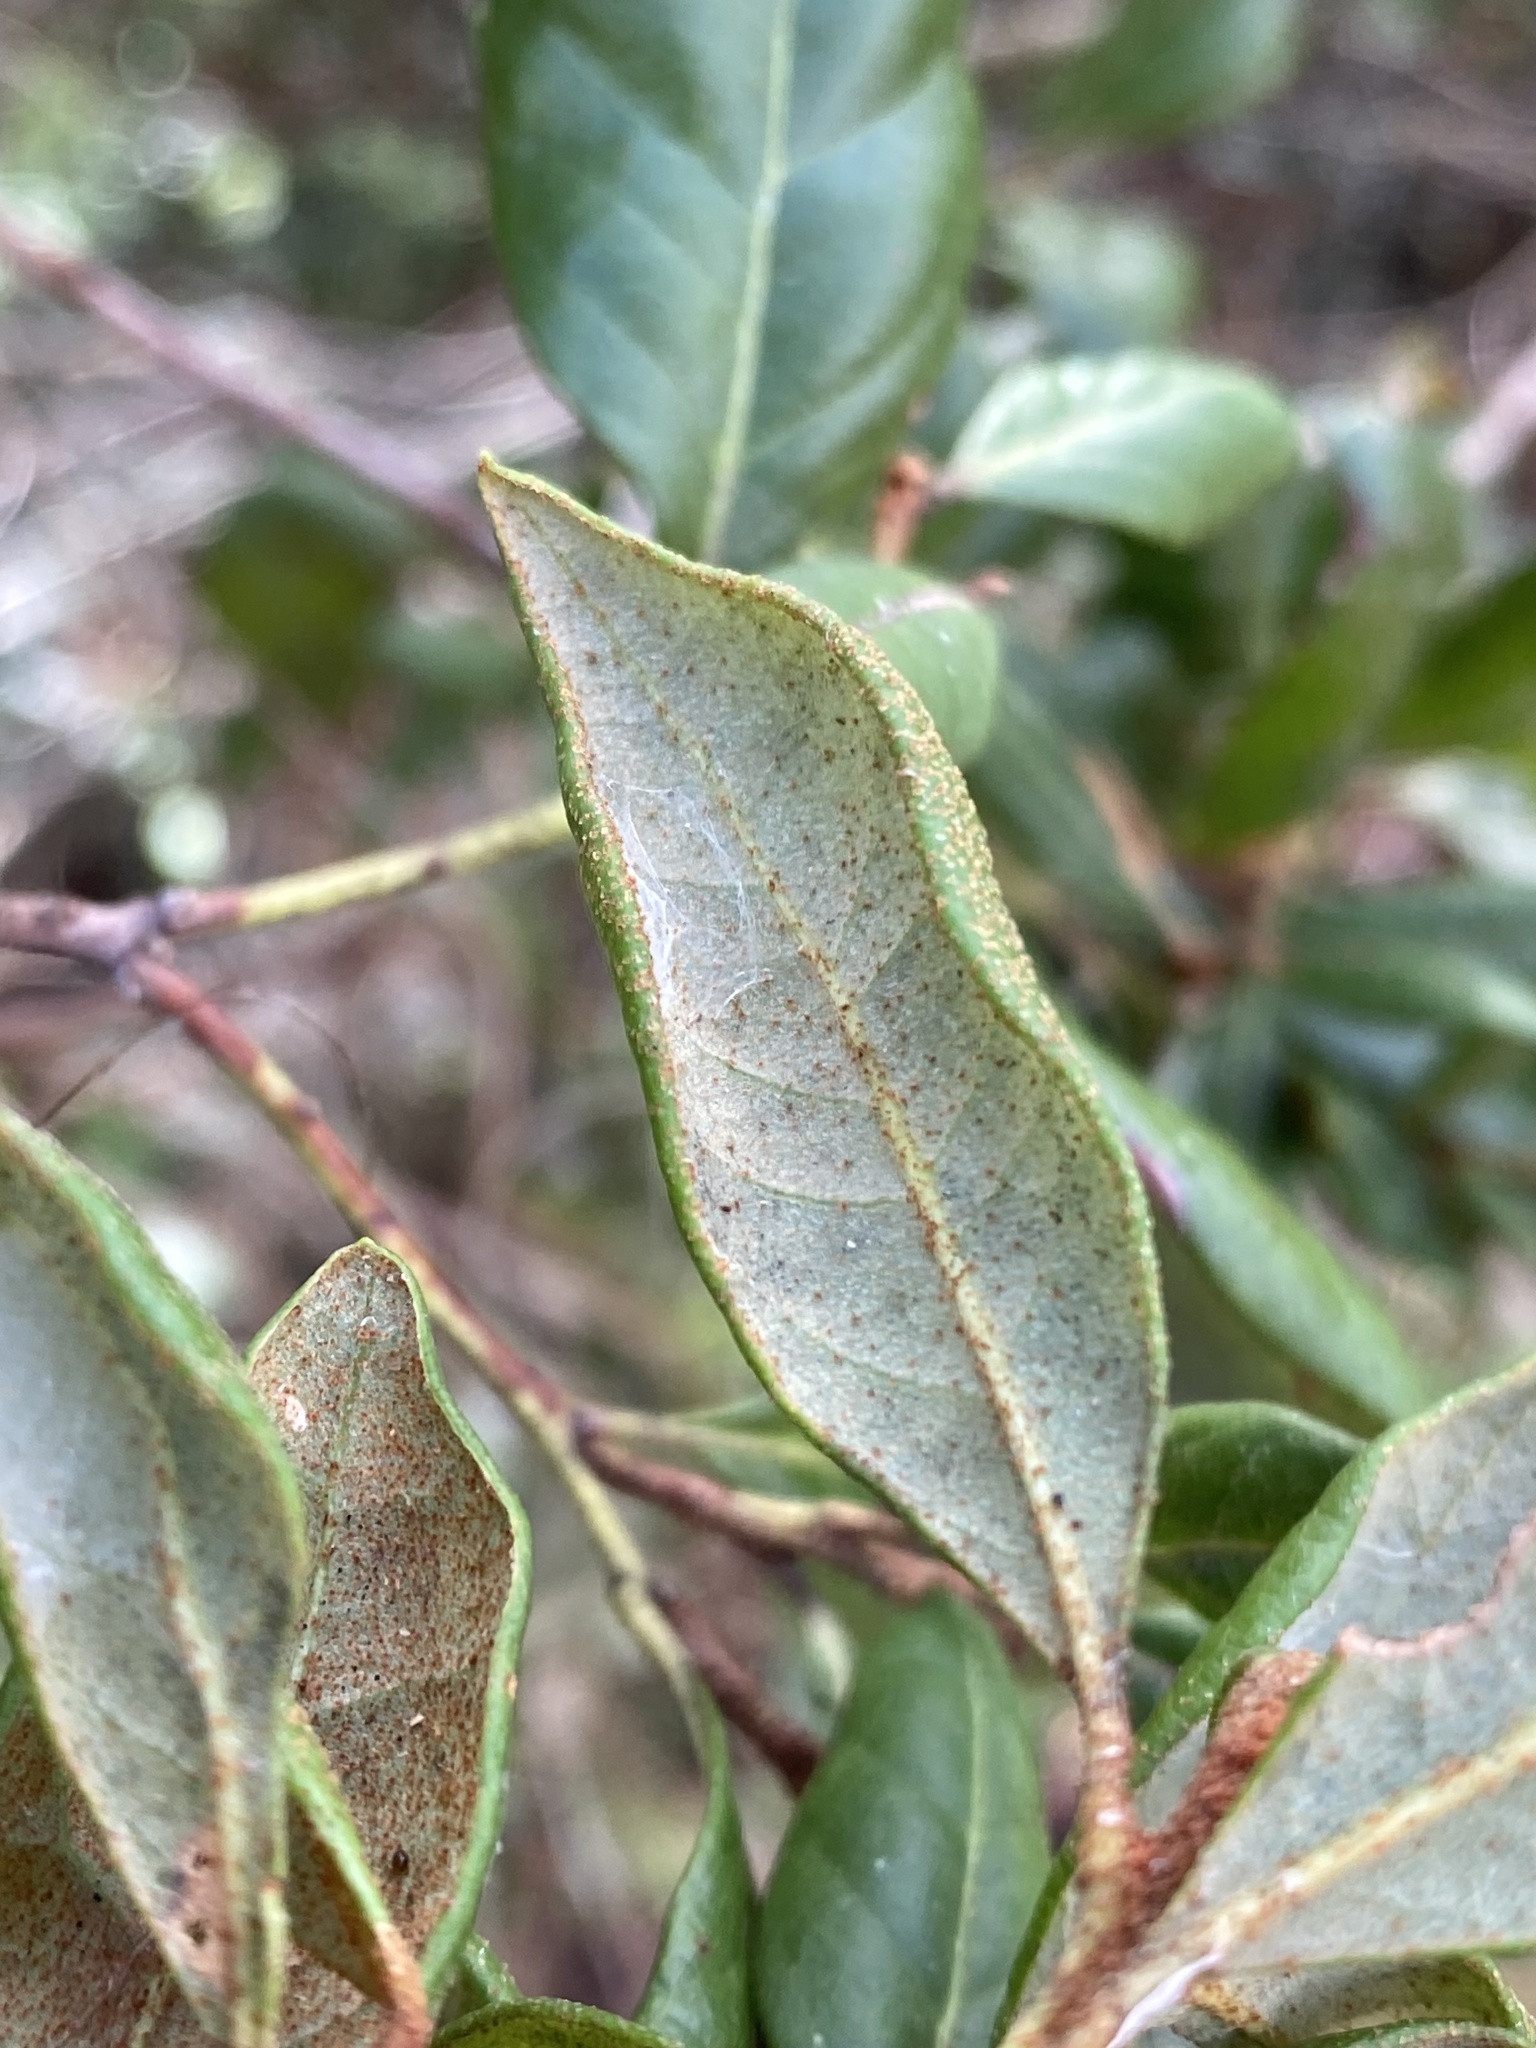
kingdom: Plantae
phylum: Tracheophyta
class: Magnoliopsida
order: Ericales
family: Ericaceae
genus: Lyonia
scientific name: Lyonia ferruginea
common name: Rusty lyonia
